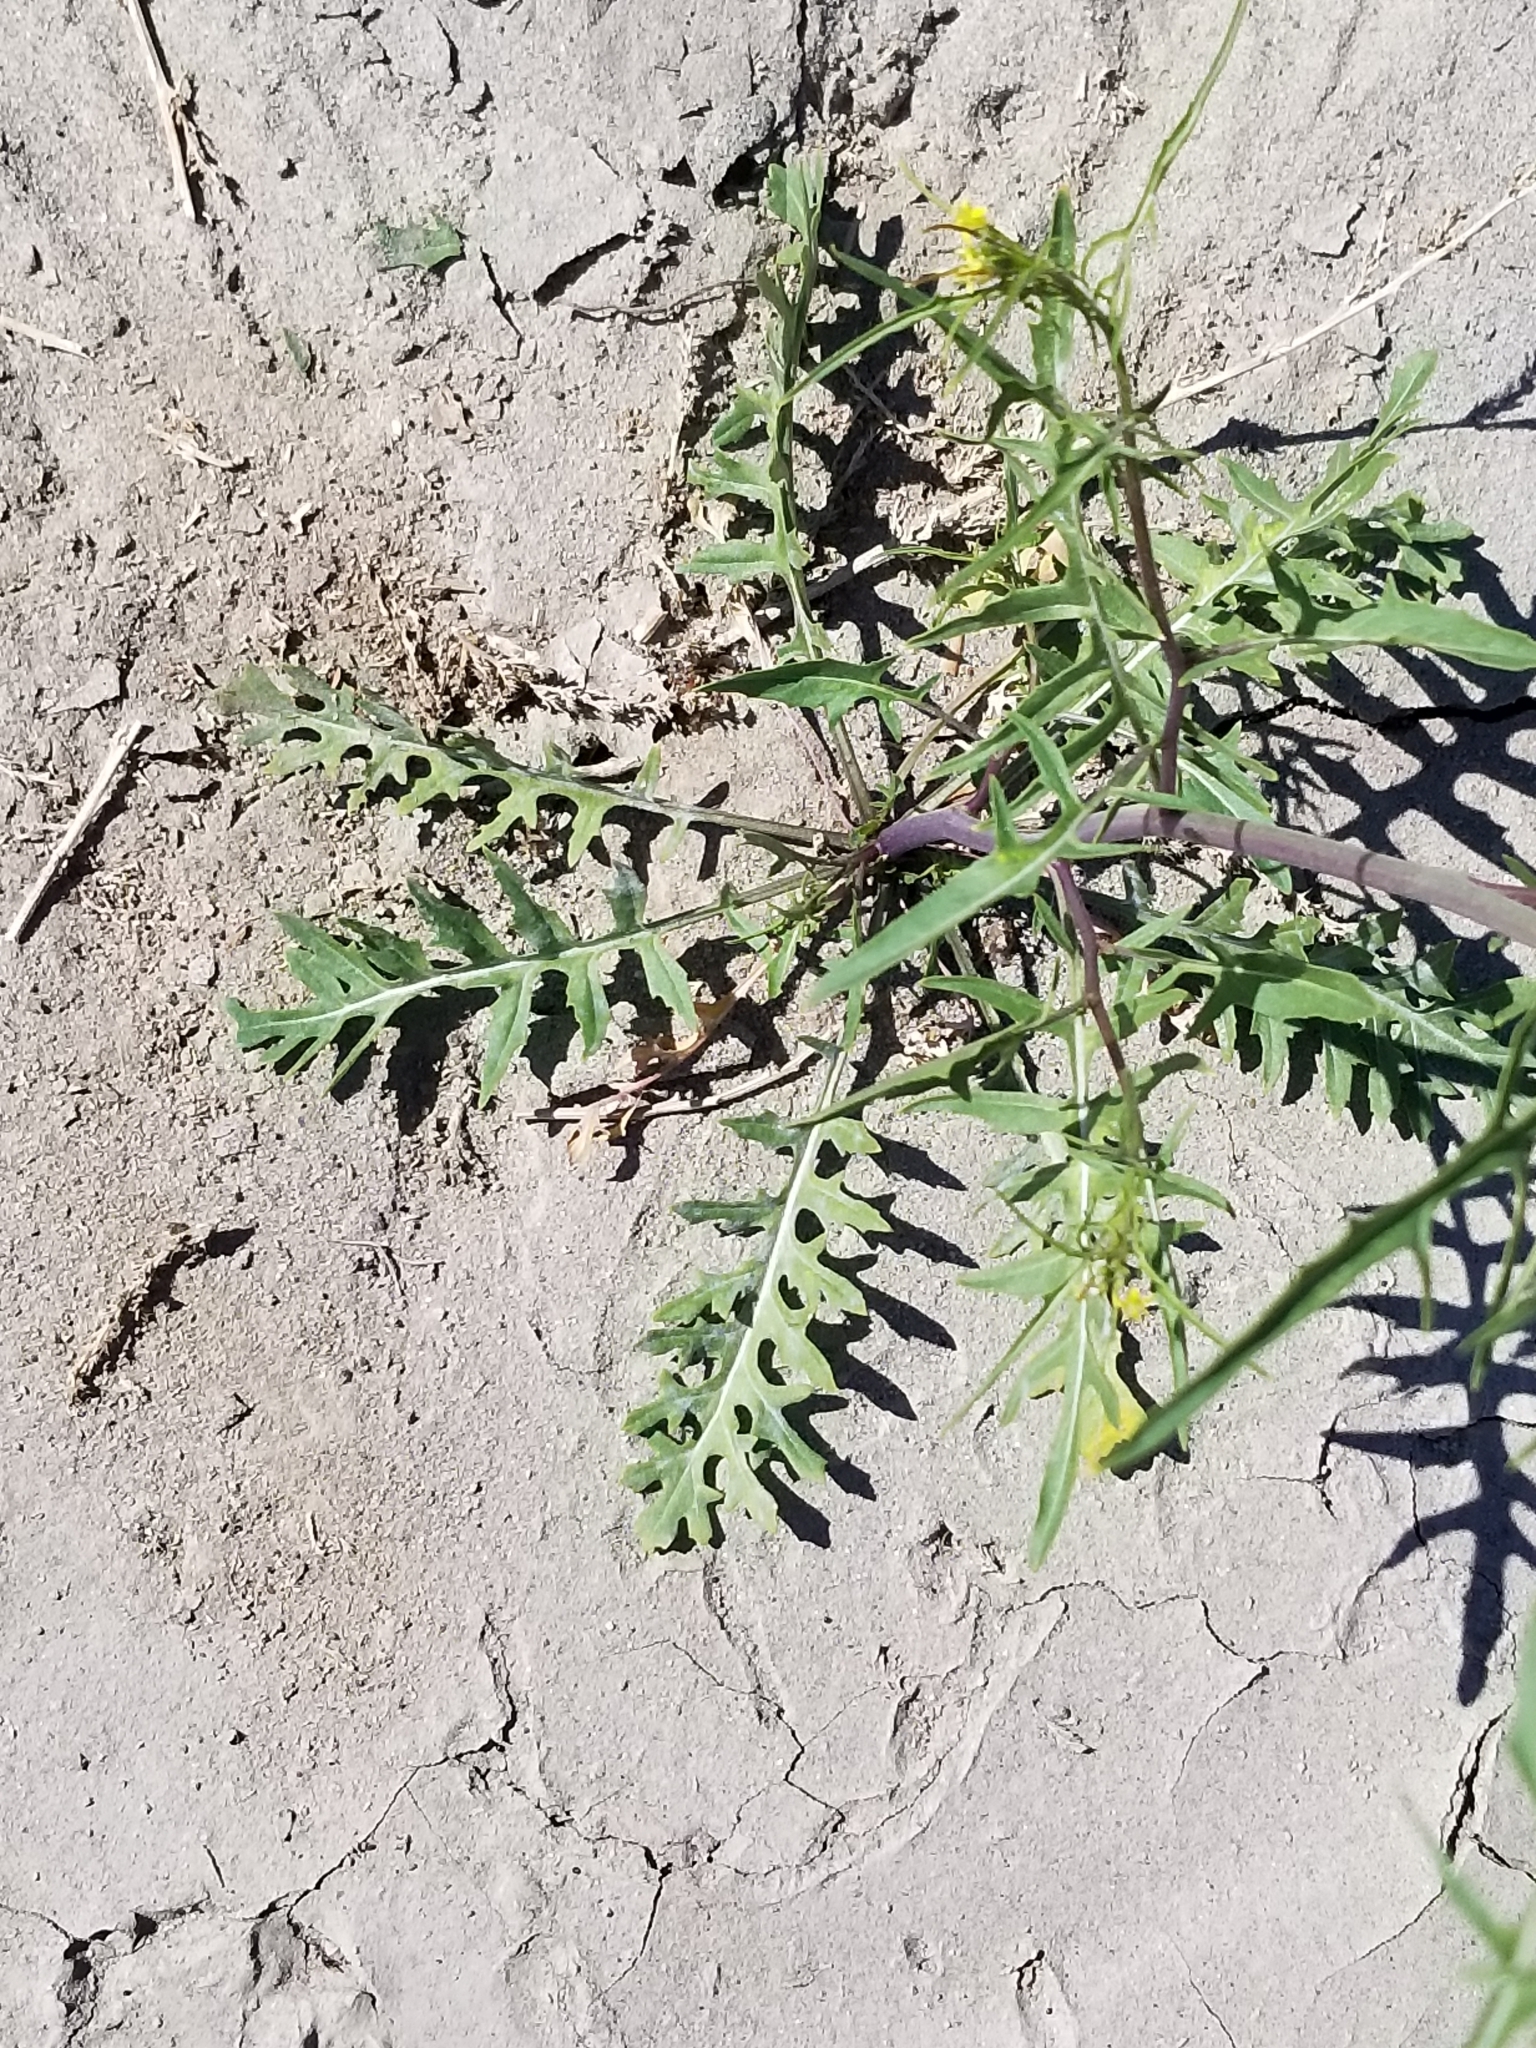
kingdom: Plantae
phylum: Tracheophyta
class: Magnoliopsida
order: Brassicales
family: Brassicaceae
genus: Sisymbrium
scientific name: Sisymbrium irio
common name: London rocket
